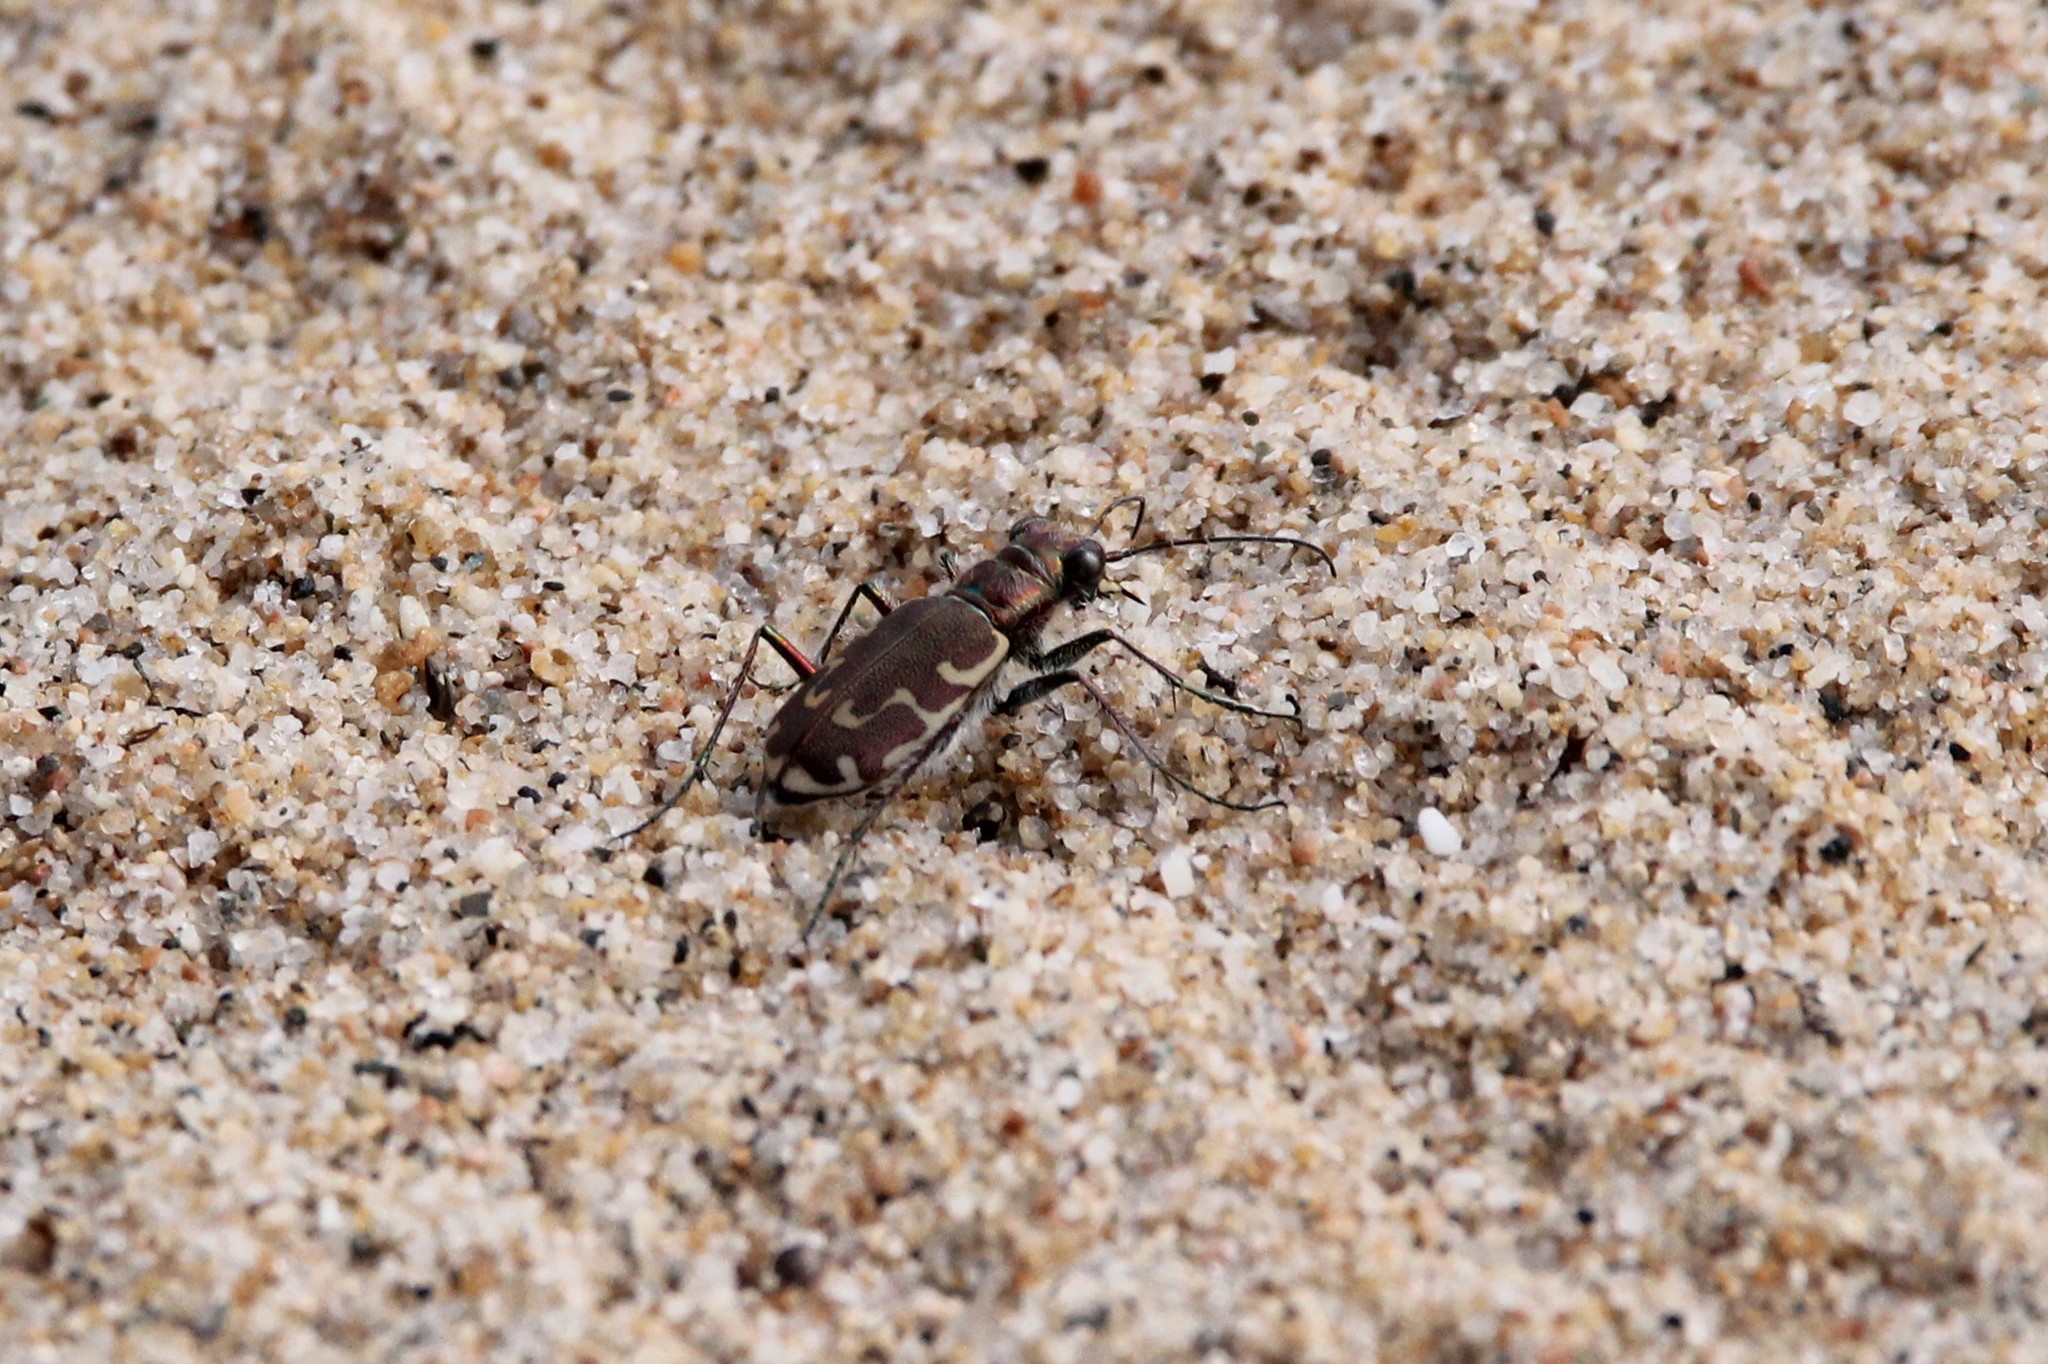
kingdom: Animalia
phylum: Arthropoda
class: Insecta
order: Coleoptera
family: Carabidae
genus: Cicindela
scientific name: Cicindela repanda
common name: Bronzed tiger beetle
